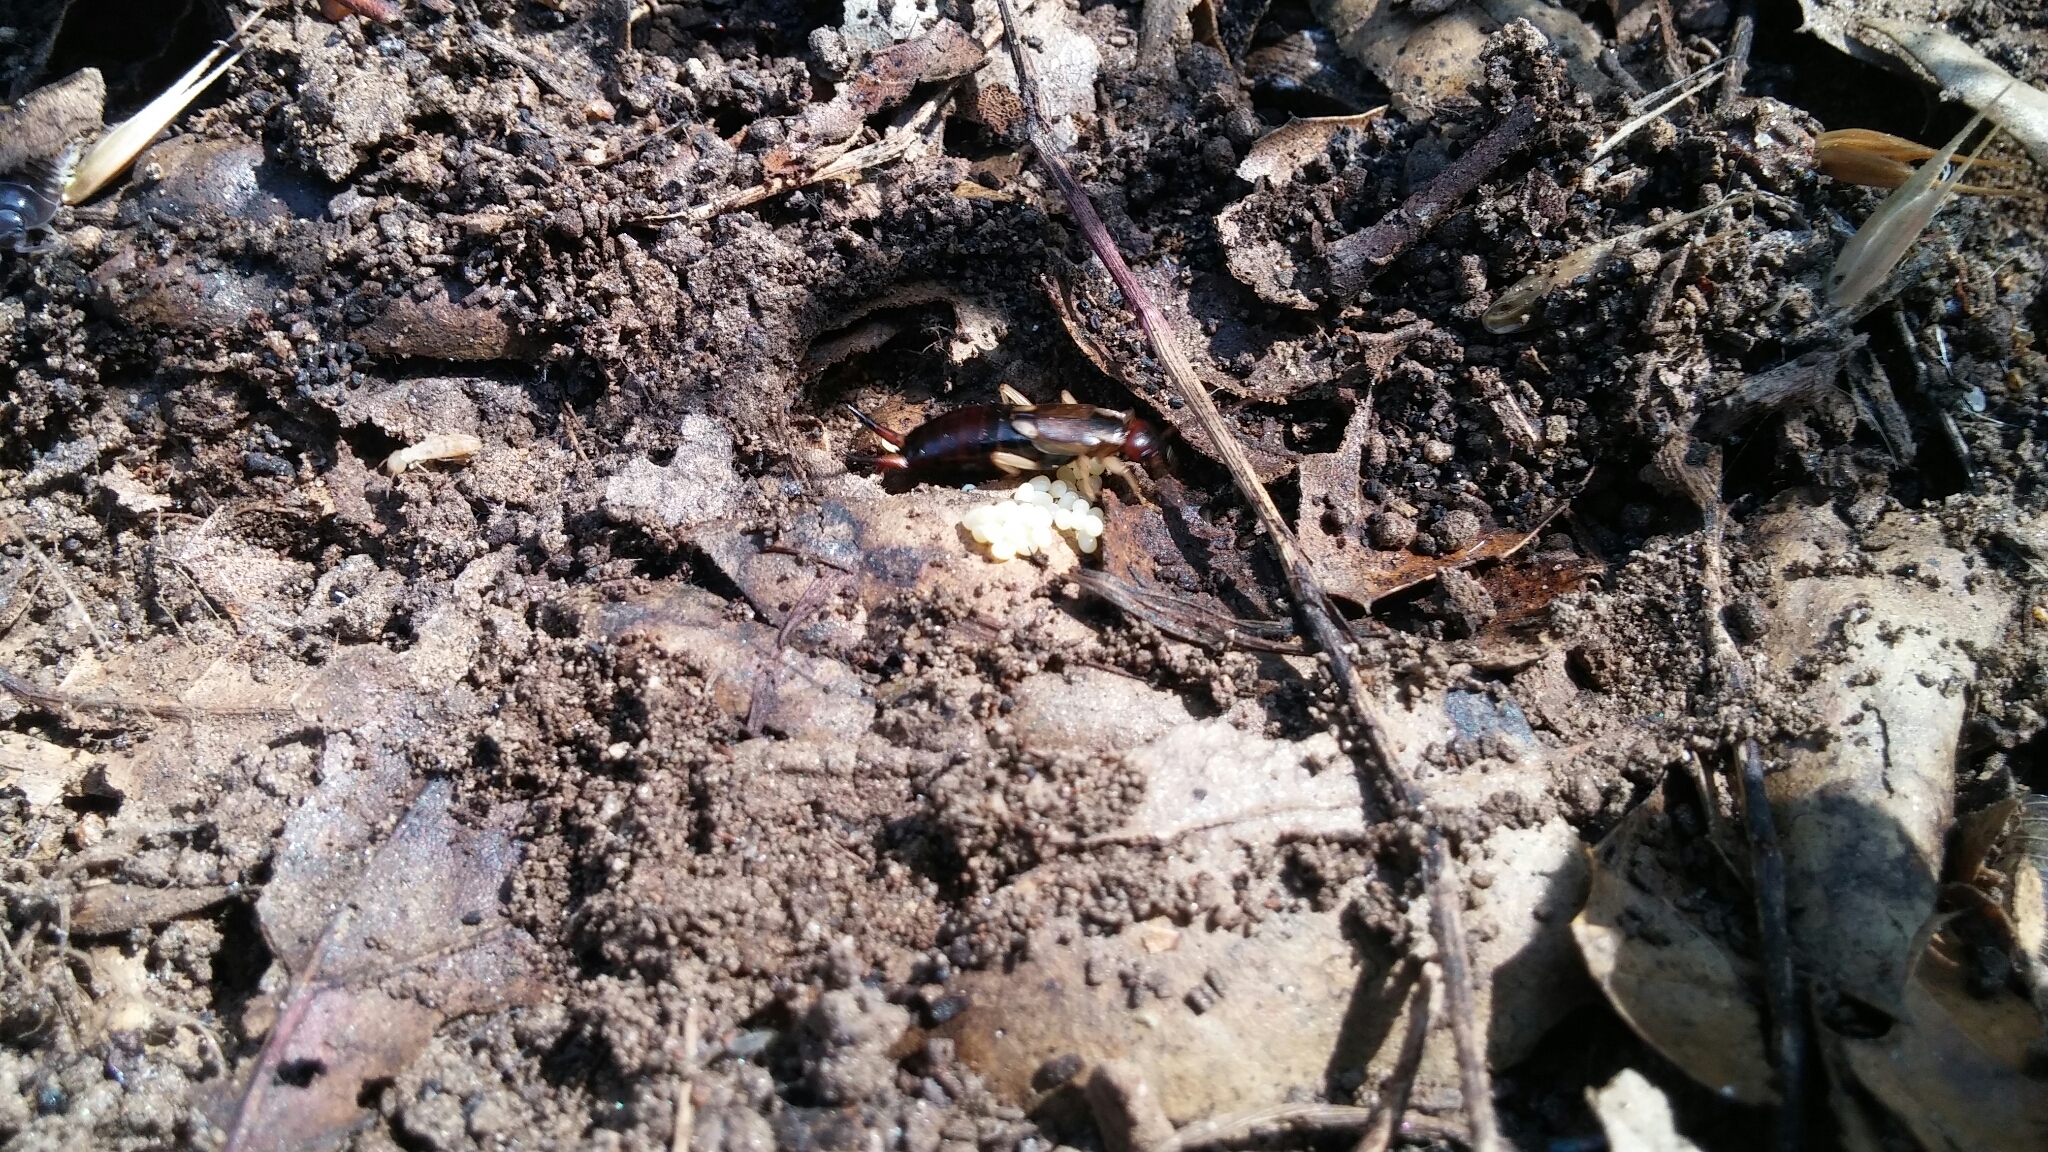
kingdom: Animalia
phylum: Arthropoda
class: Insecta
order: Dermaptera
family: Forficulidae
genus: Forficula
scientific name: Forficula
